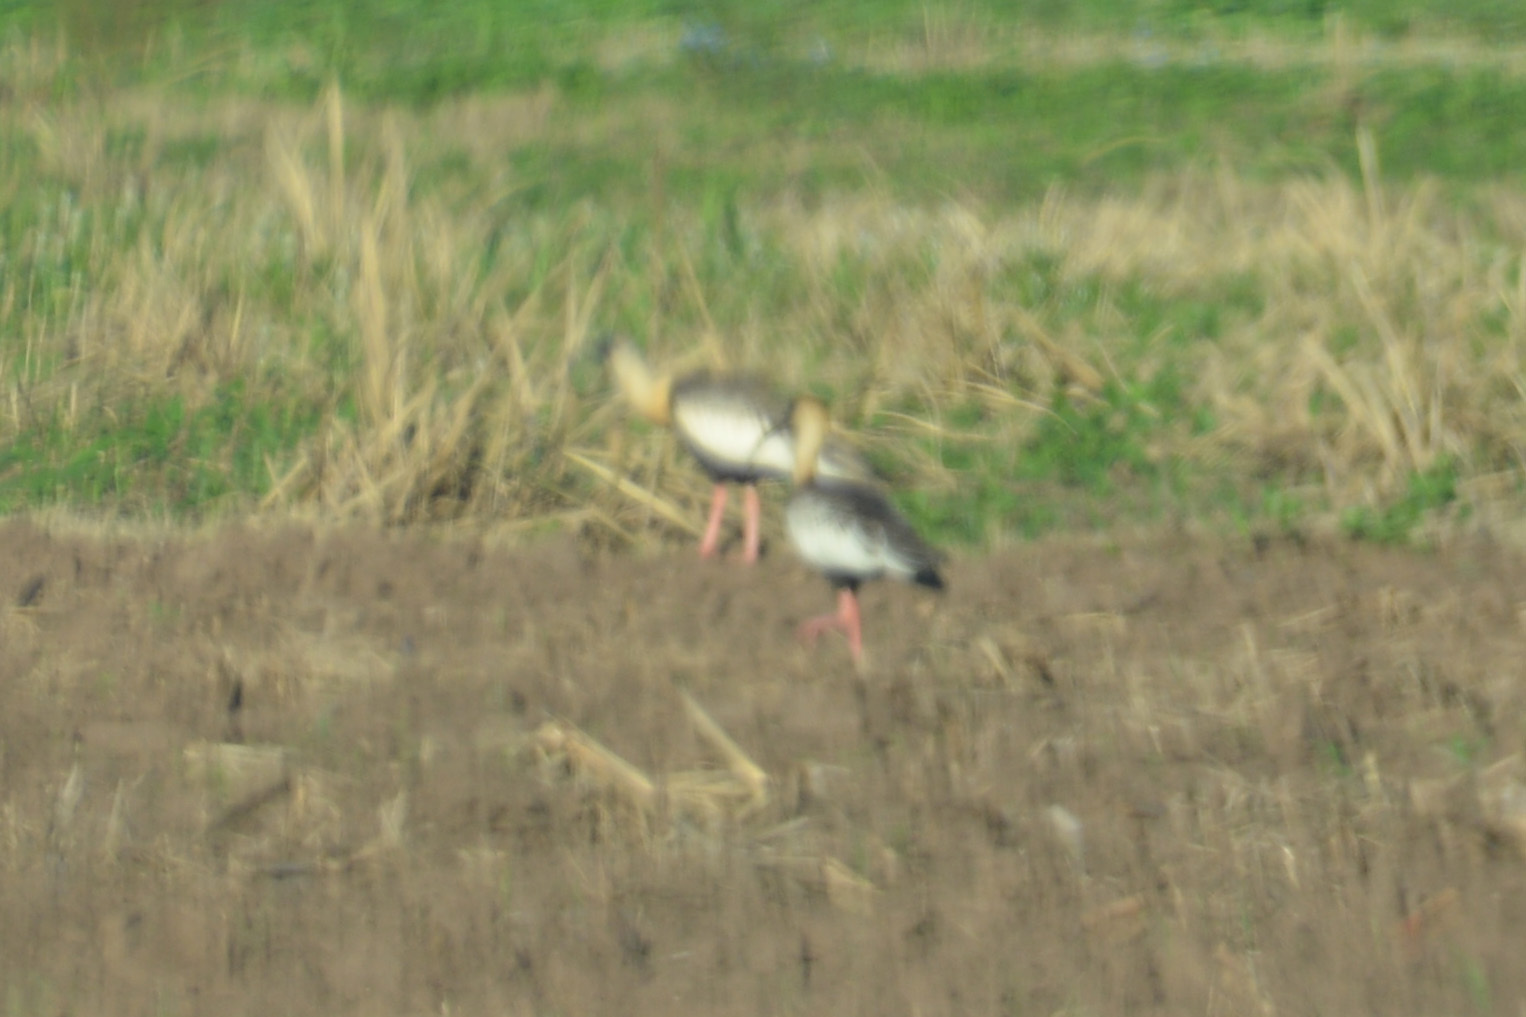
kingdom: Animalia
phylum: Chordata
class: Aves
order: Pelecaniformes
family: Threskiornithidae
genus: Theristicus
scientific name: Theristicus caudatus
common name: Buff-necked ibis
